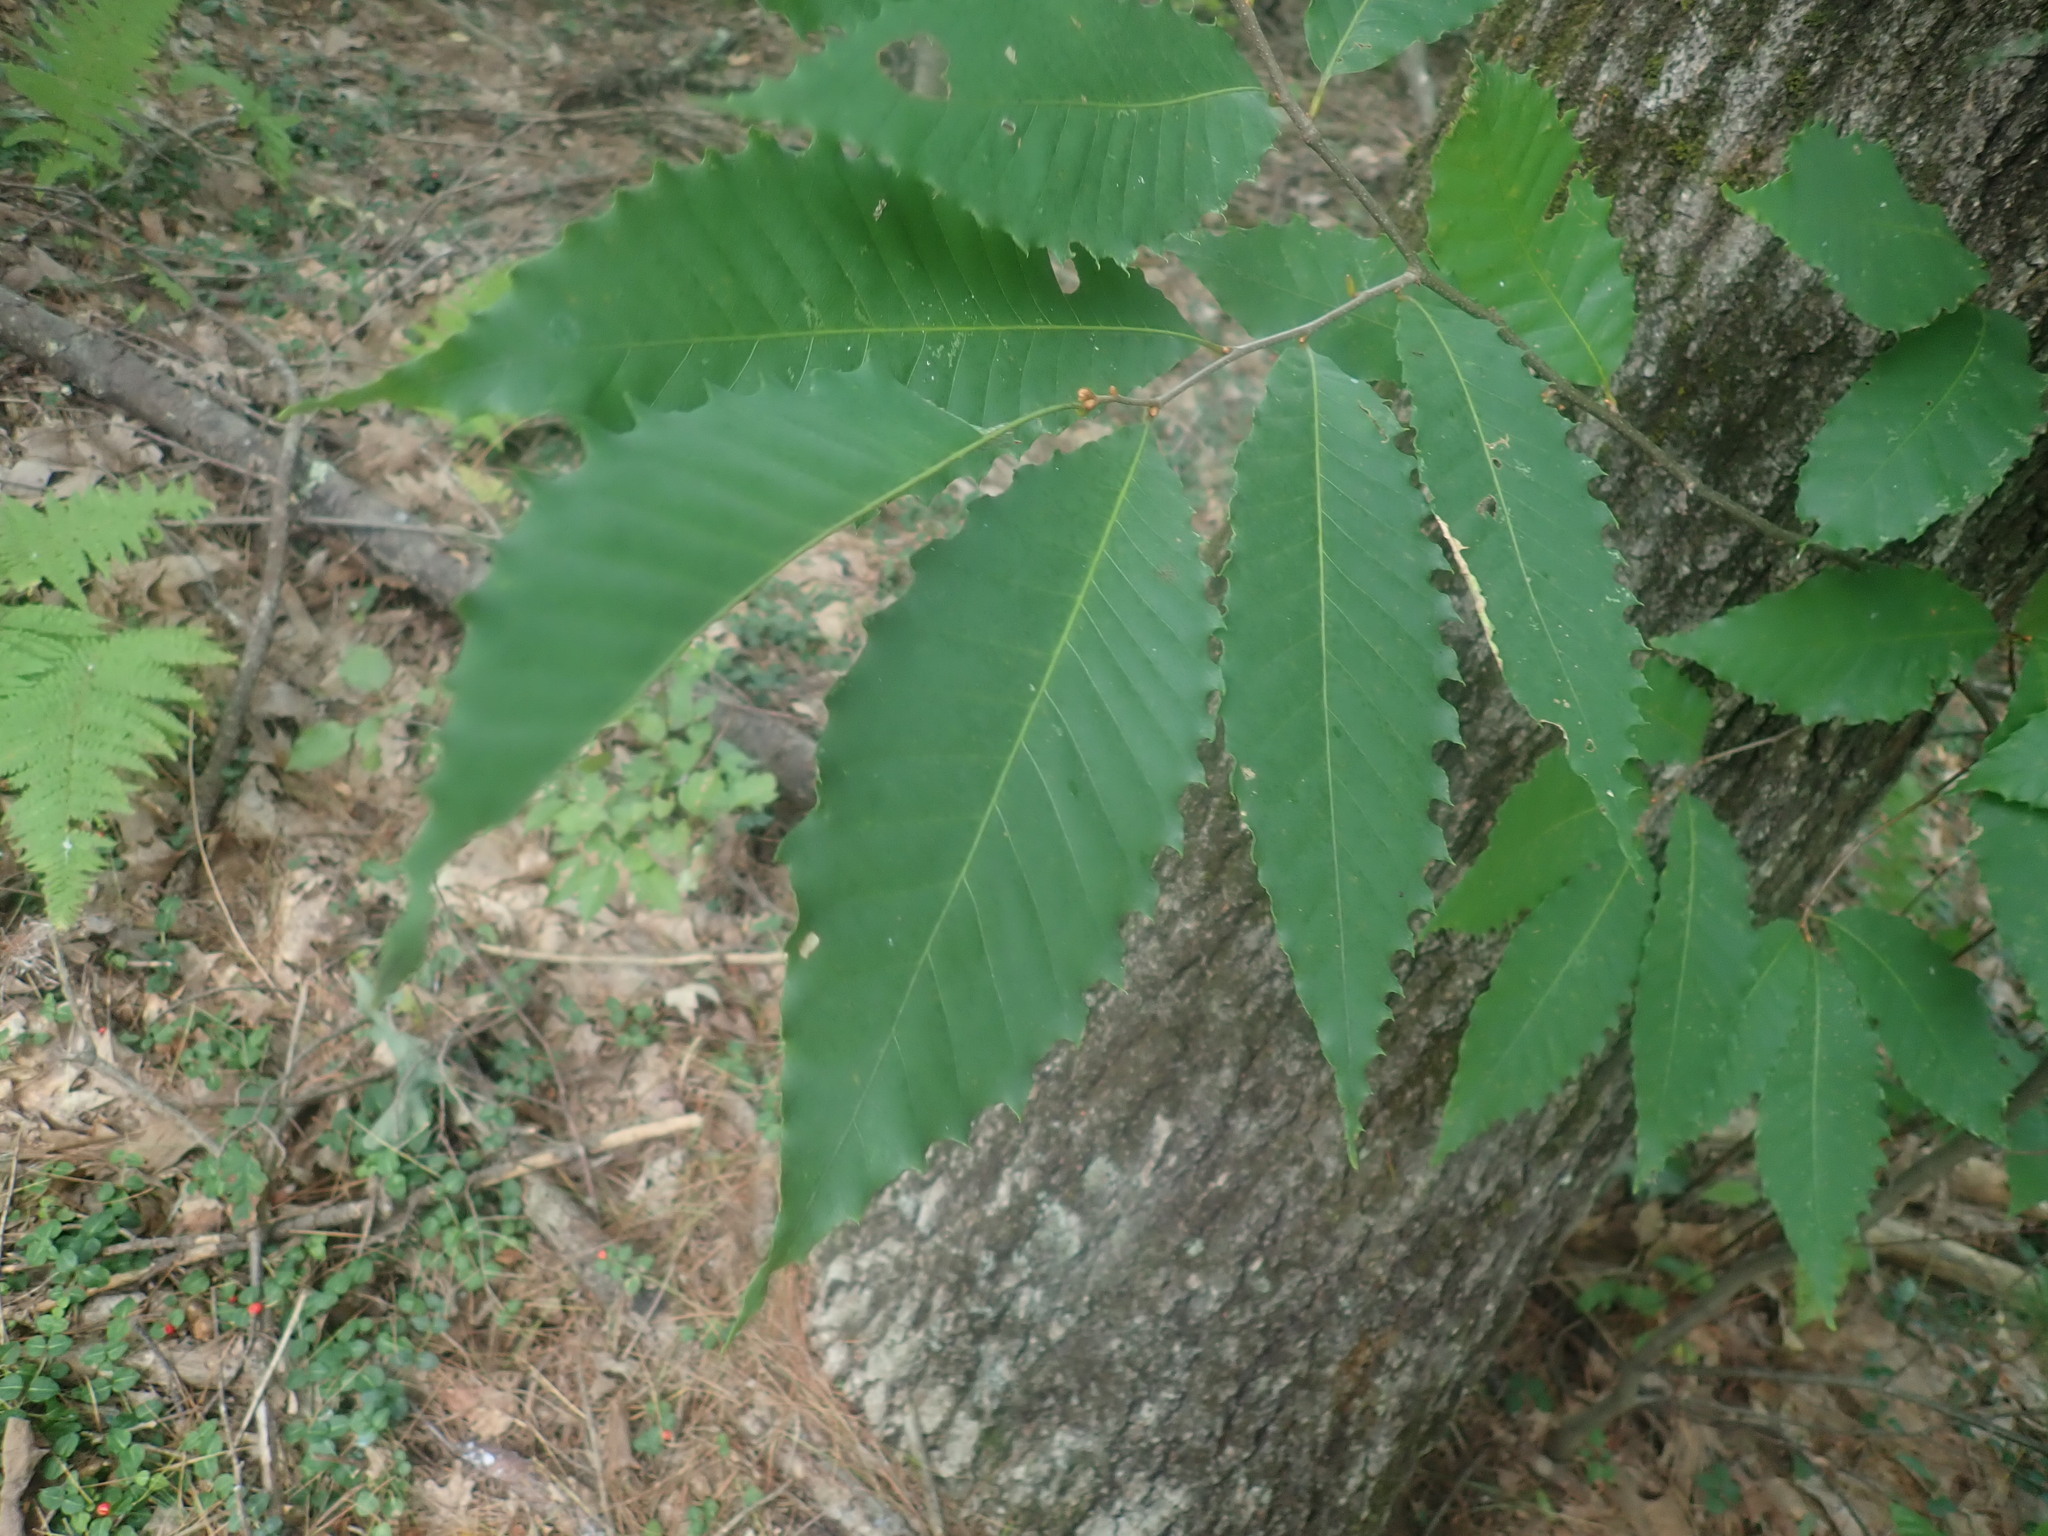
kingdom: Plantae
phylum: Tracheophyta
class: Magnoliopsida
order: Fagales
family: Fagaceae
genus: Castanea
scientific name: Castanea dentata
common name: American chestnut
